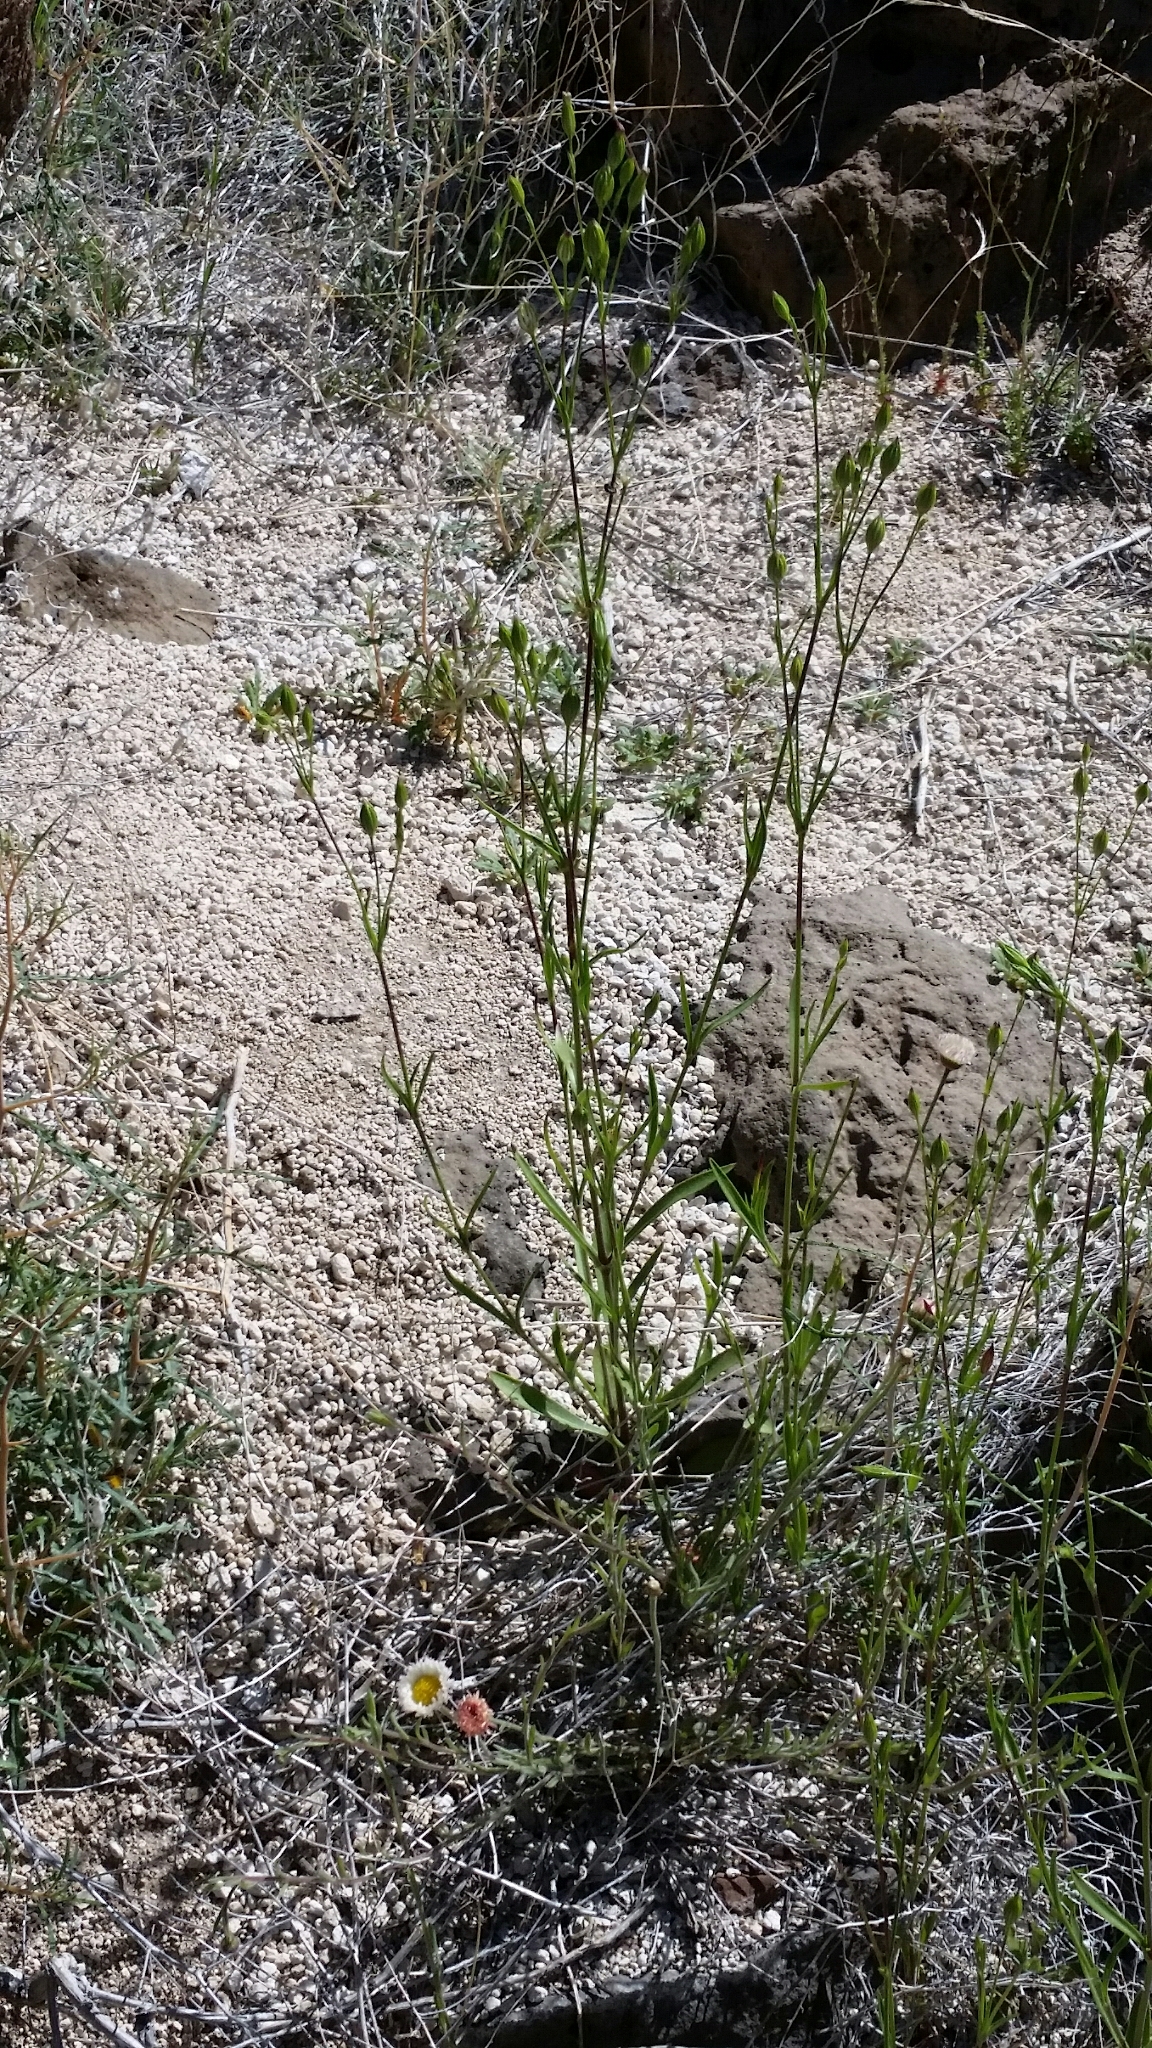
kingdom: Plantae
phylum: Tracheophyta
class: Magnoliopsida
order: Caryophyllales
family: Caryophyllaceae
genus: Silene
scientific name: Silene antirrhina
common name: Sleepy catchfly
